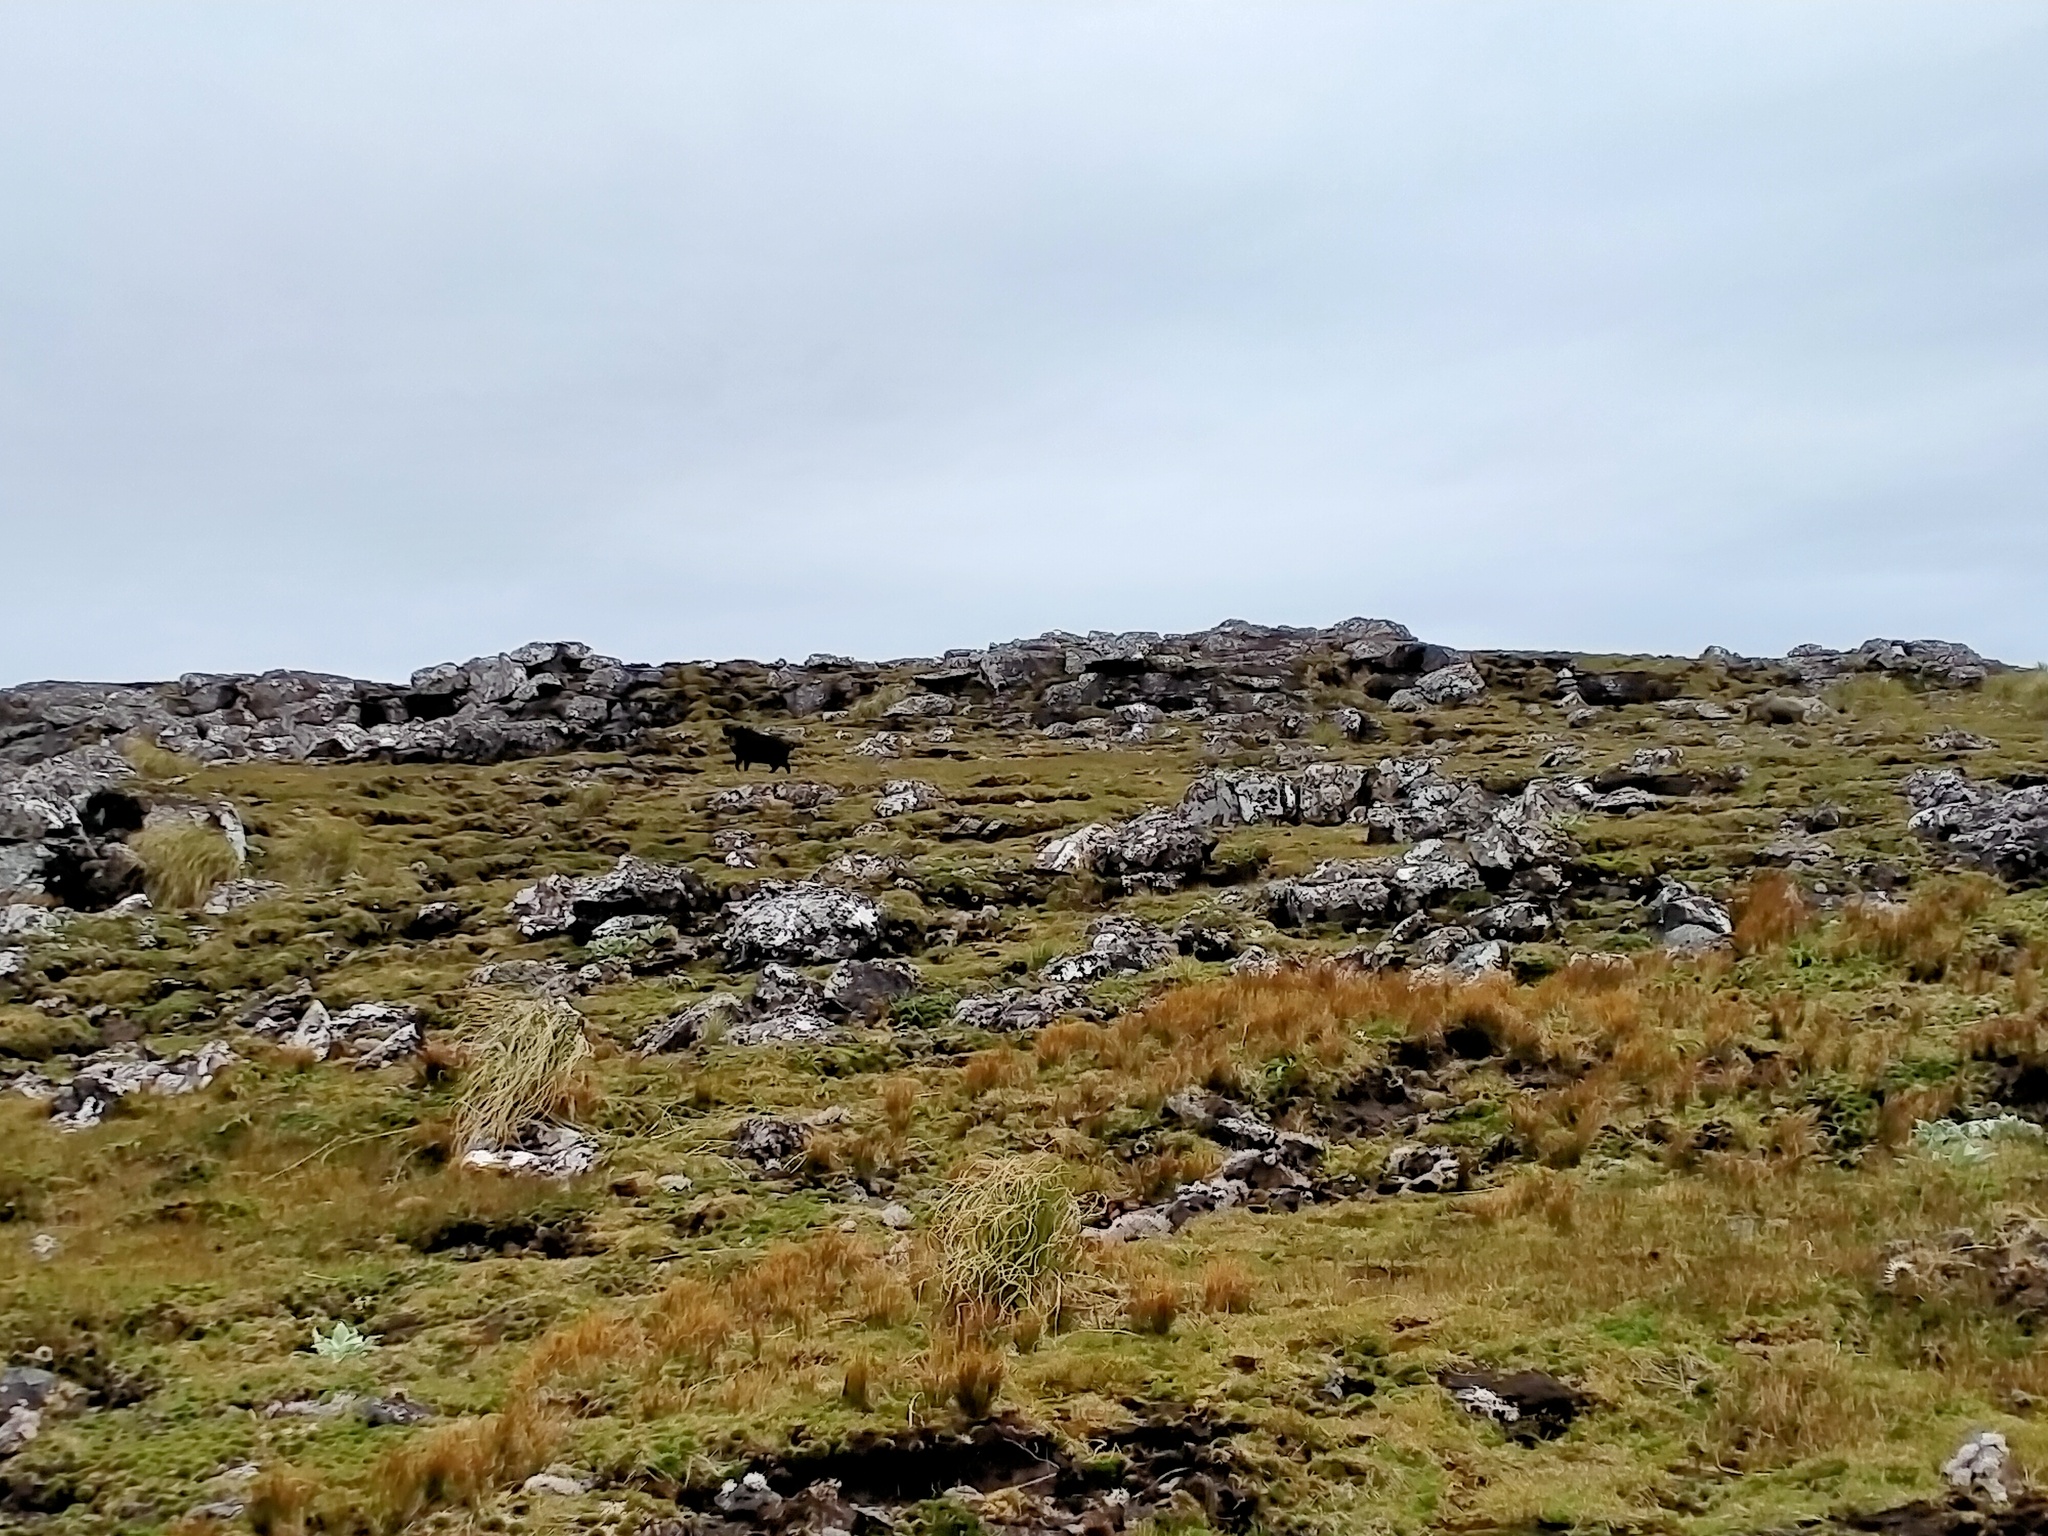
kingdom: Animalia
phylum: Chordata
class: Mammalia
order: Artiodactyla
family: Suidae
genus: Sus
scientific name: Sus scrofa
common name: Wild boar
